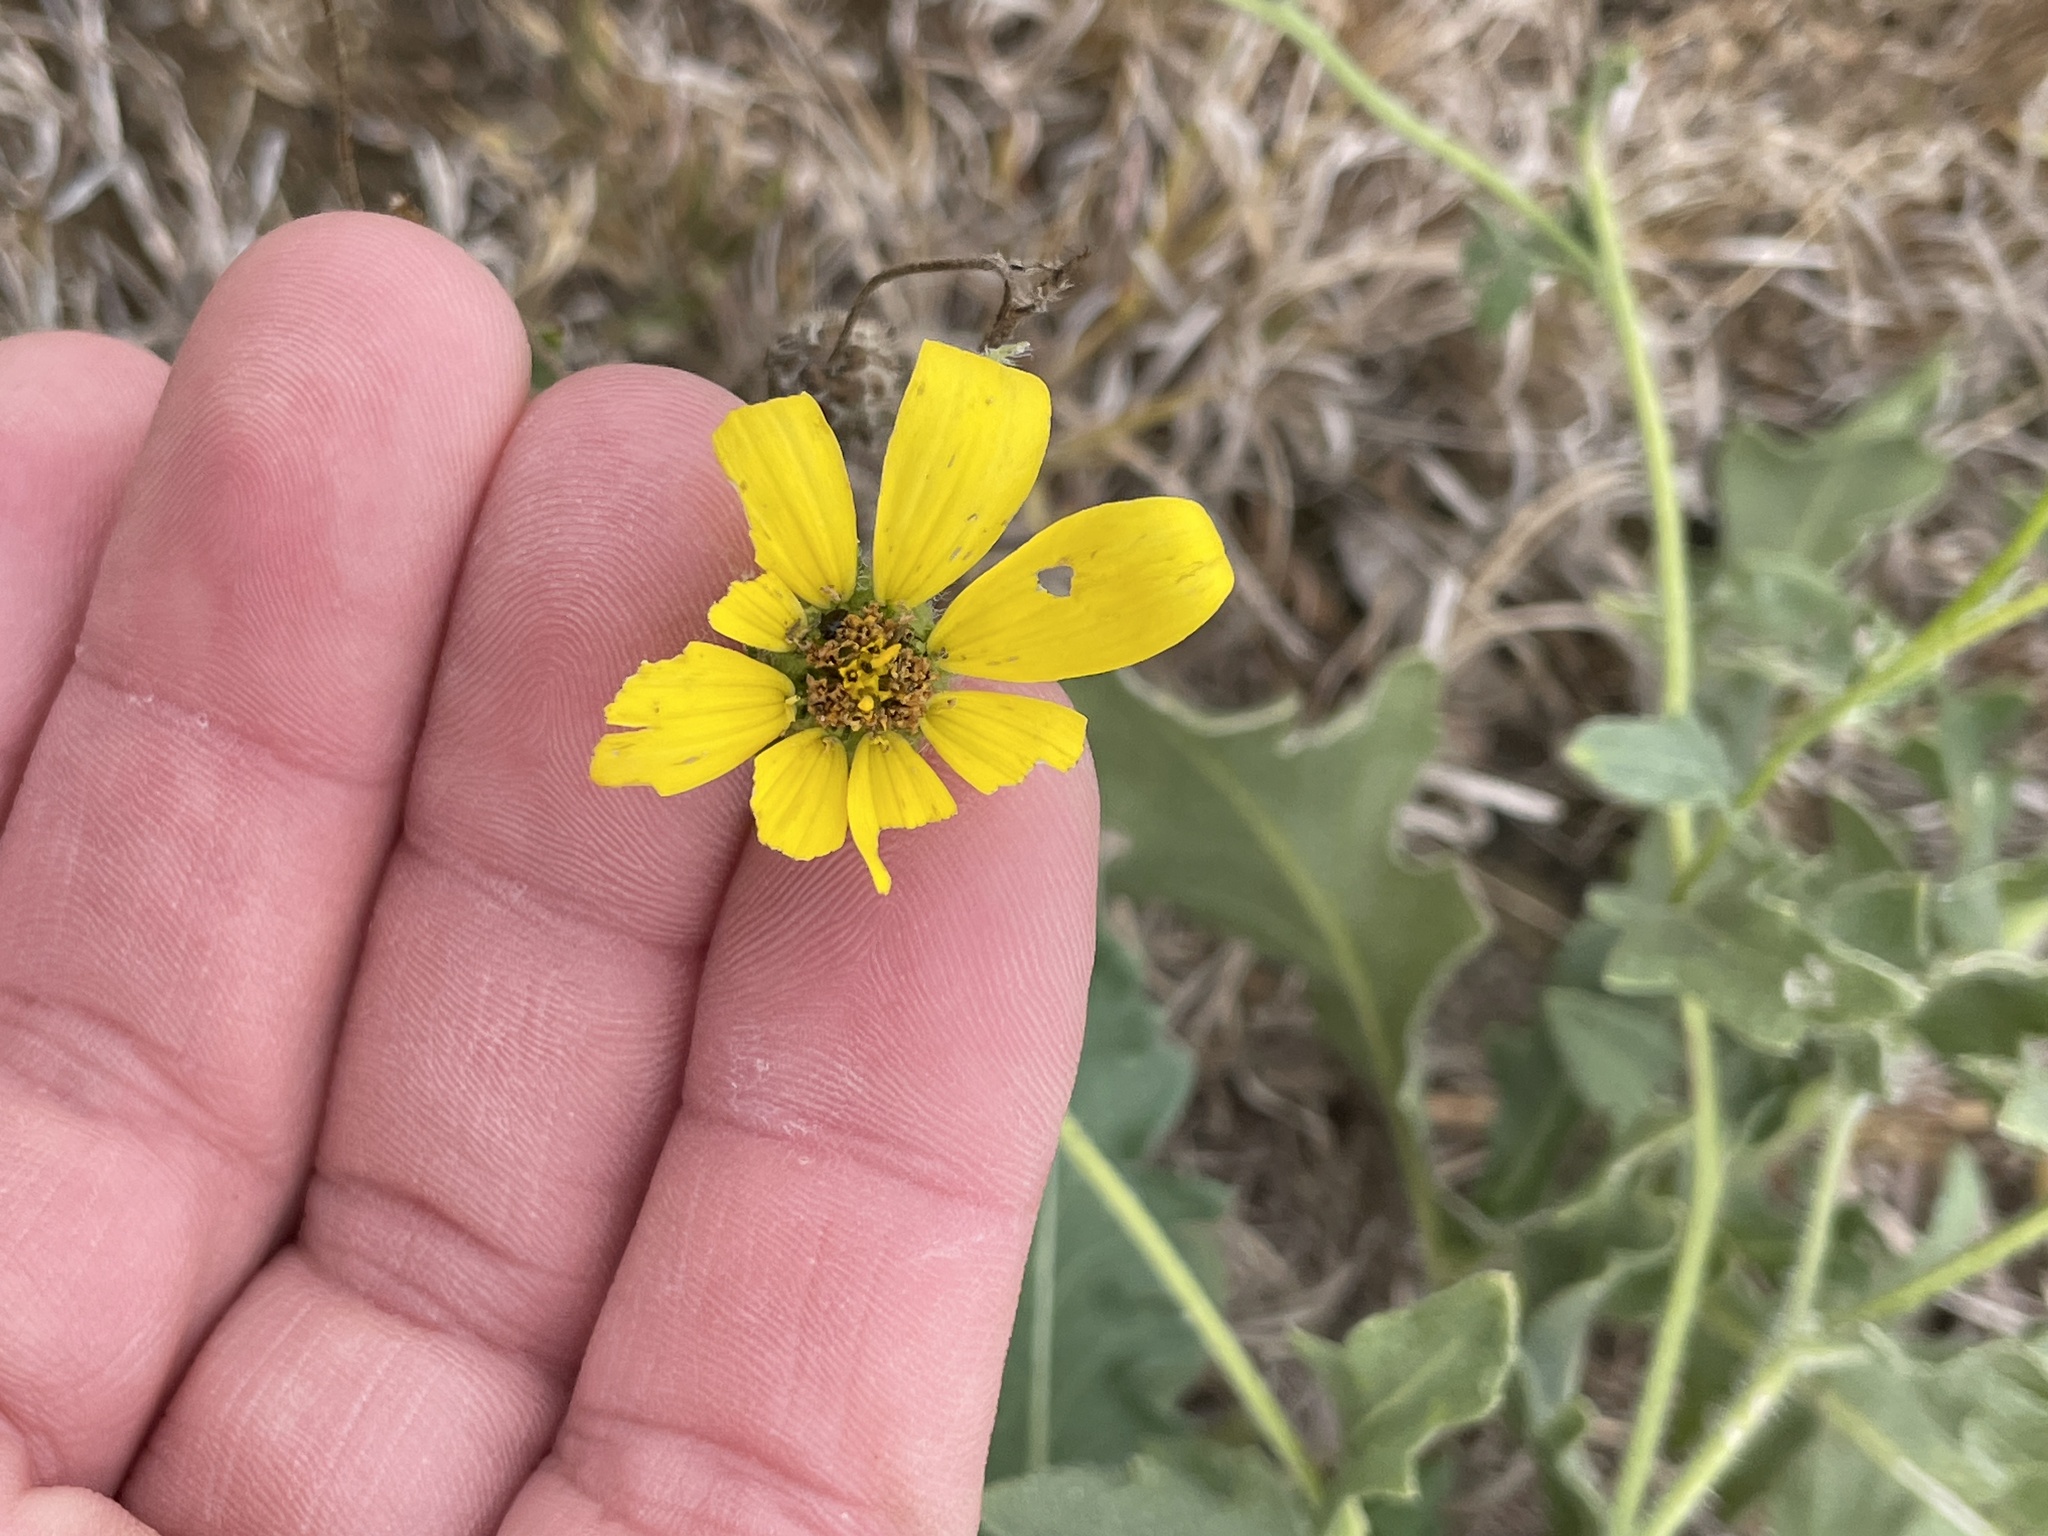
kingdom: Plantae
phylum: Tracheophyta
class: Magnoliopsida
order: Asterales
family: Asteraceae
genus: Engelmannia
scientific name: Engelmannia peristenia
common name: Engelmann's daisy
